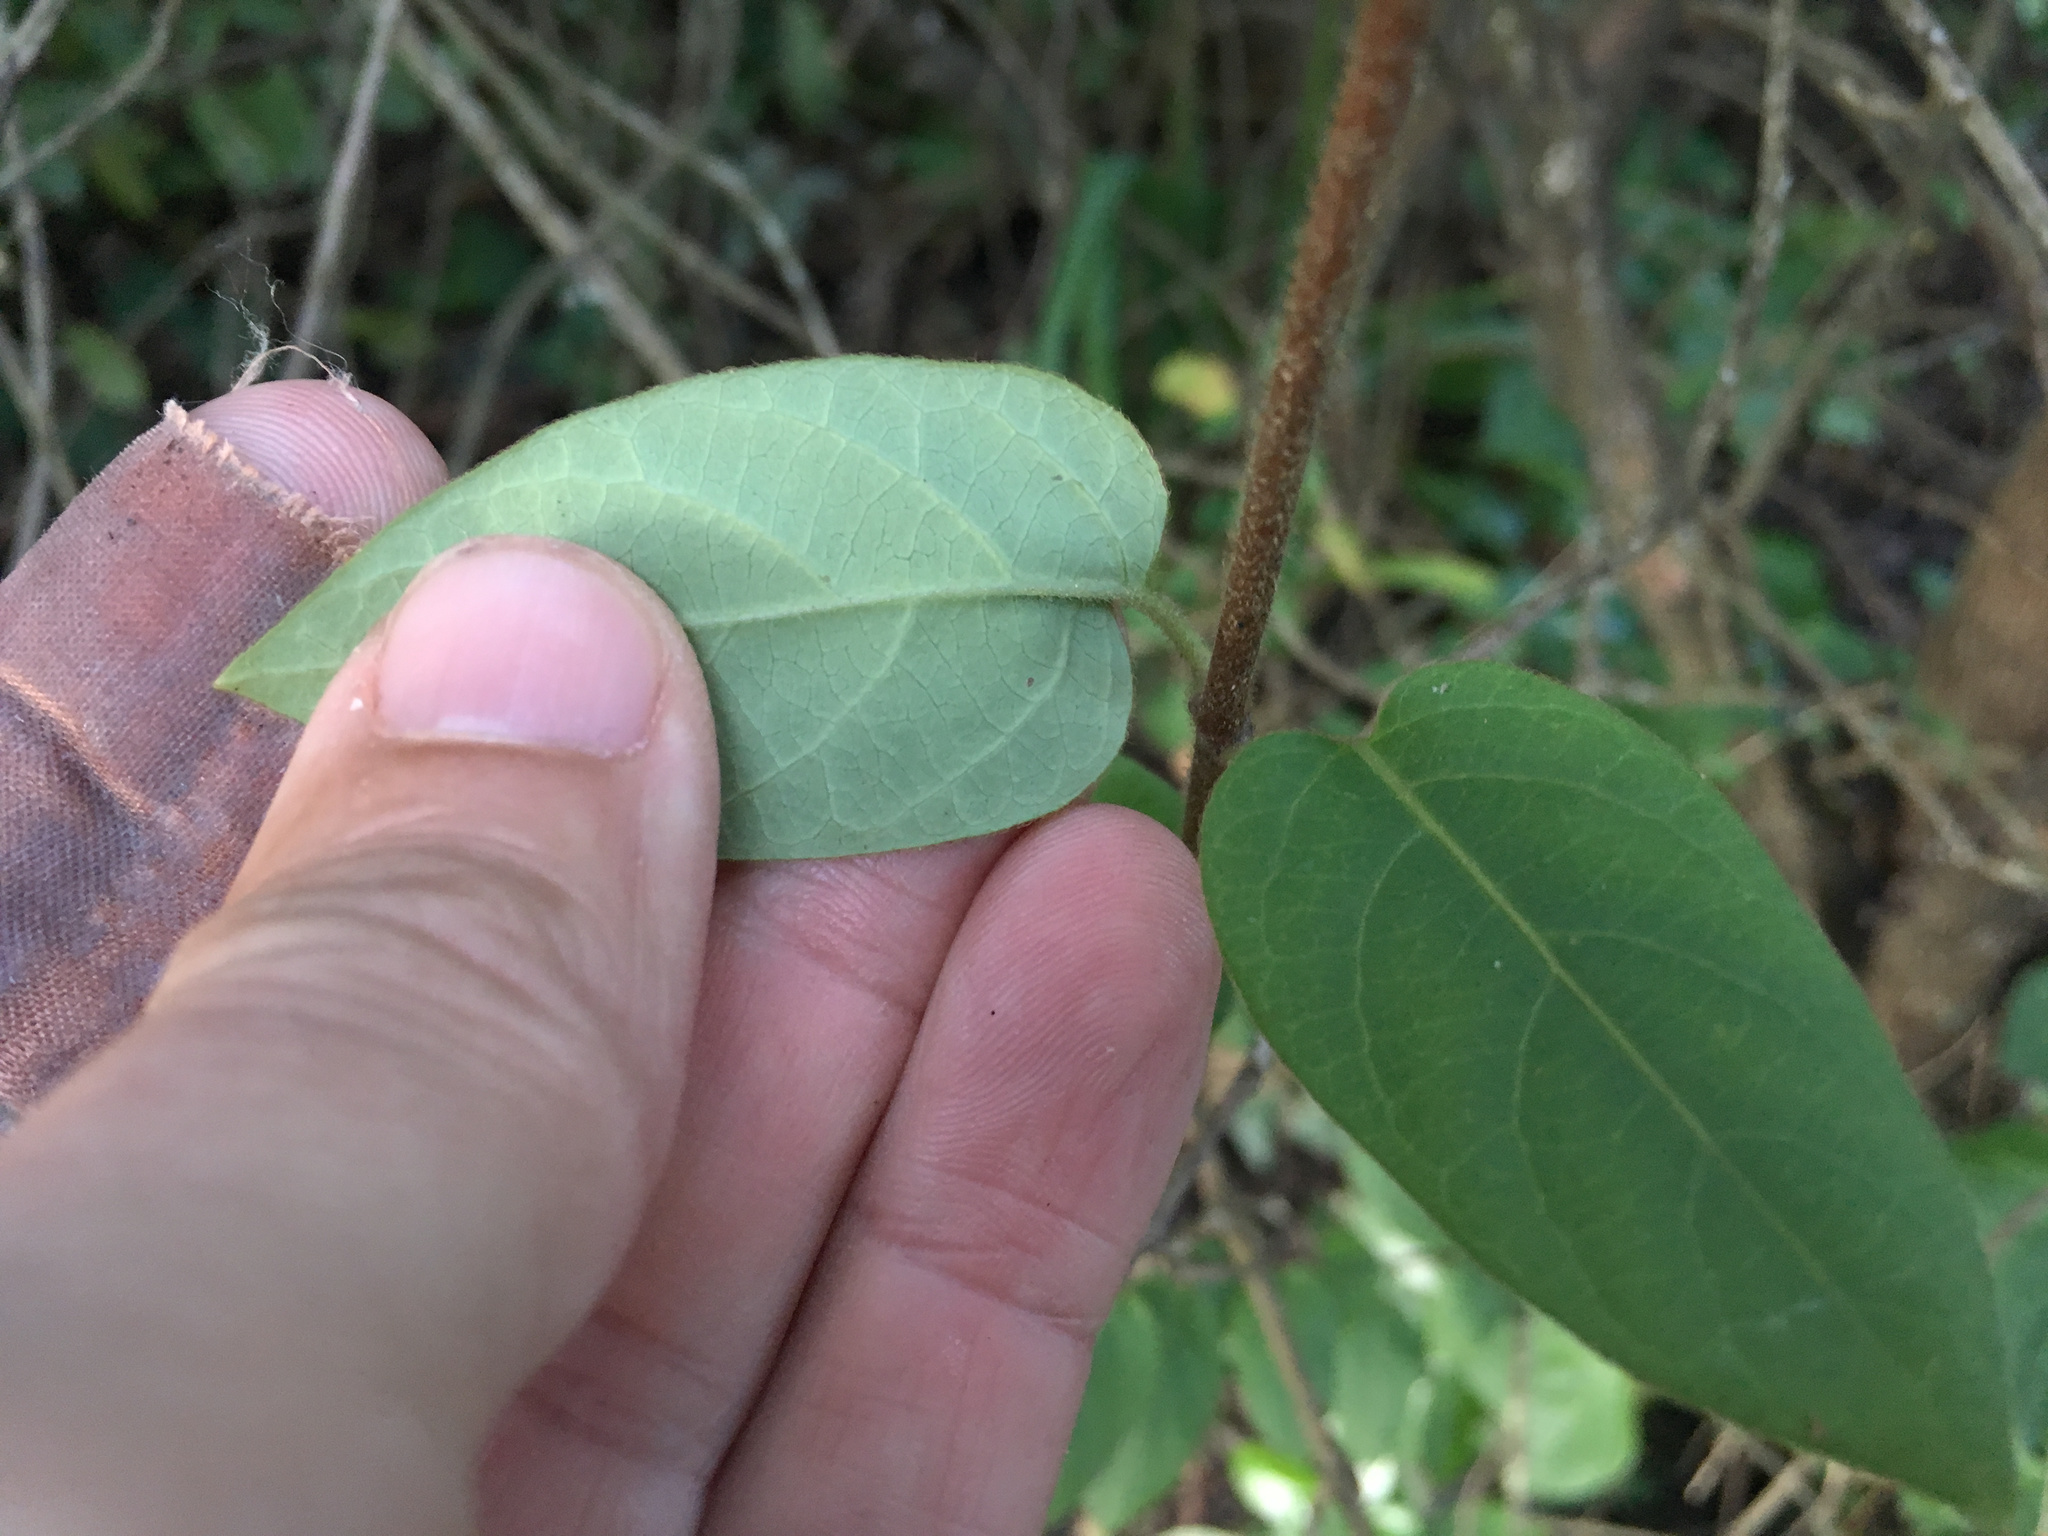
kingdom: Plantae
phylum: Tracheophyta
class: Magnoliopsida
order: Dipsacales
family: Caprifoliaceae
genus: Lonicera
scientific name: Lonicera japonica
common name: Japanese honeysuckle
